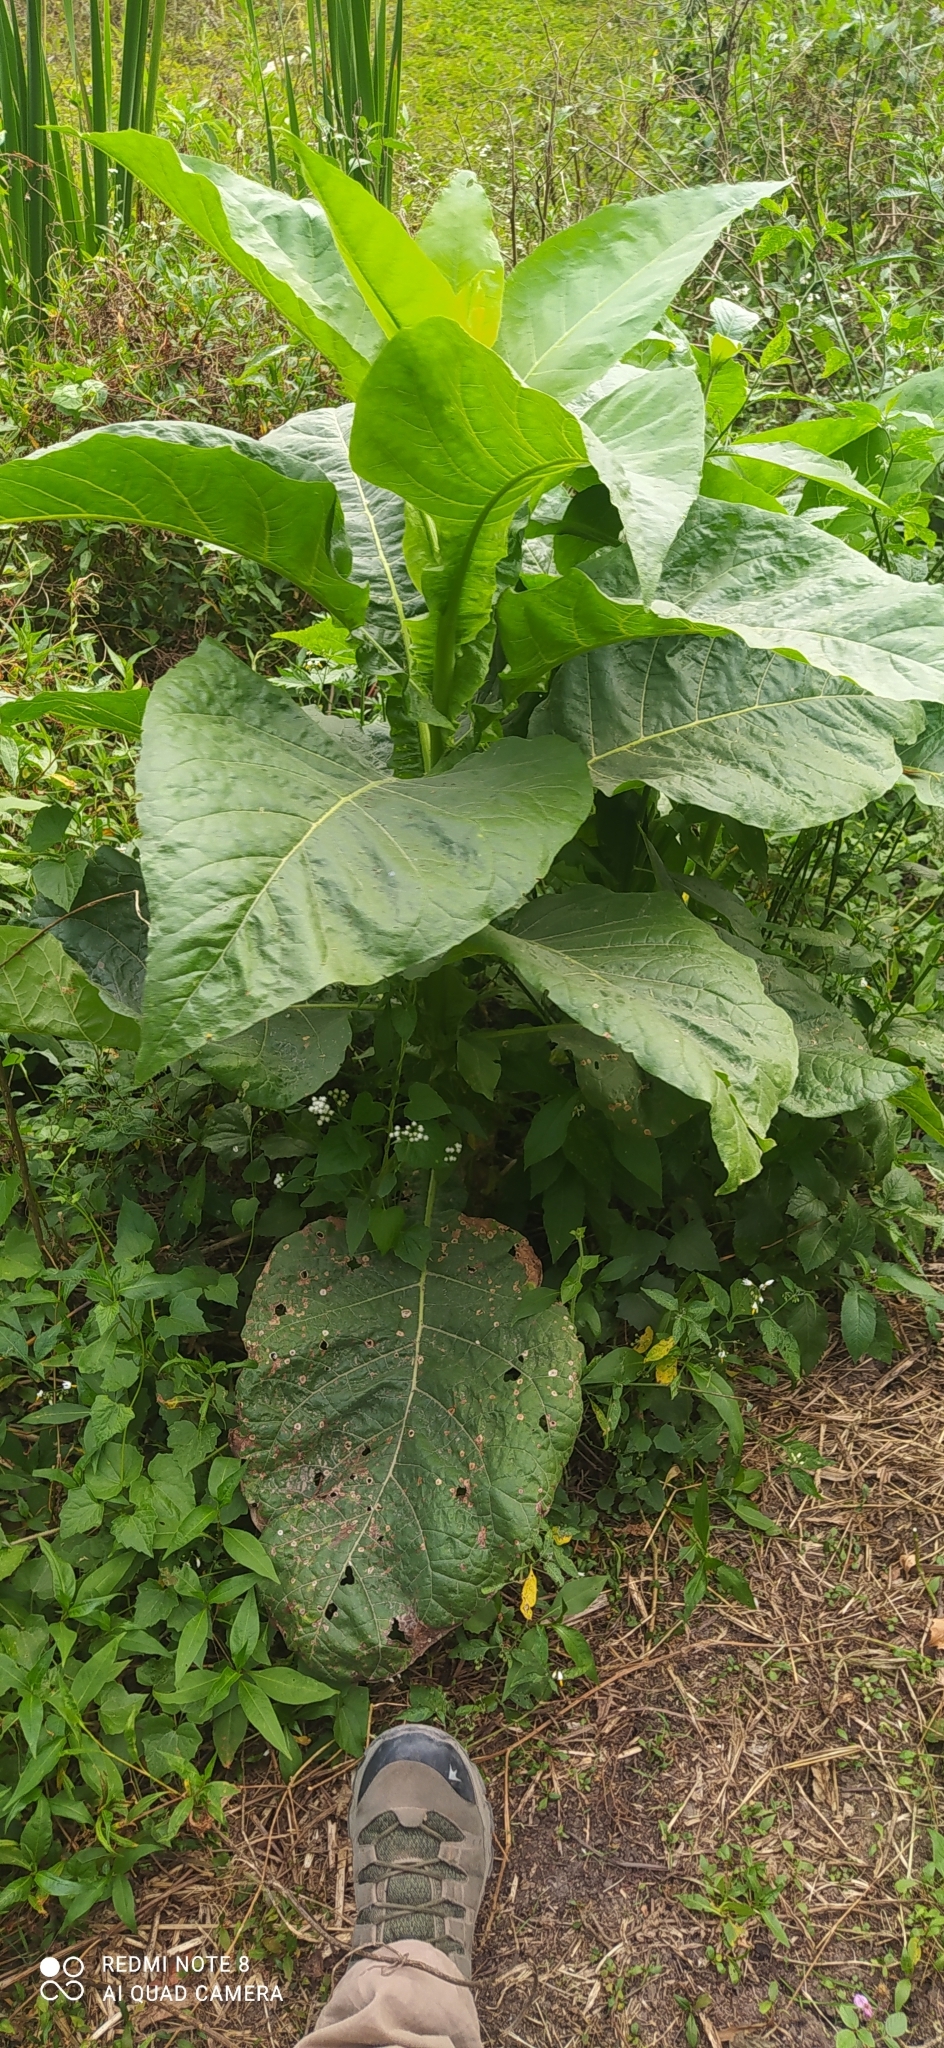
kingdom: Plantae
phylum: Tracheophyta
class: Magnoliopsida
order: Solanales
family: Solanaceae
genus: Nicotiana
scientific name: Nicotiana otophora
